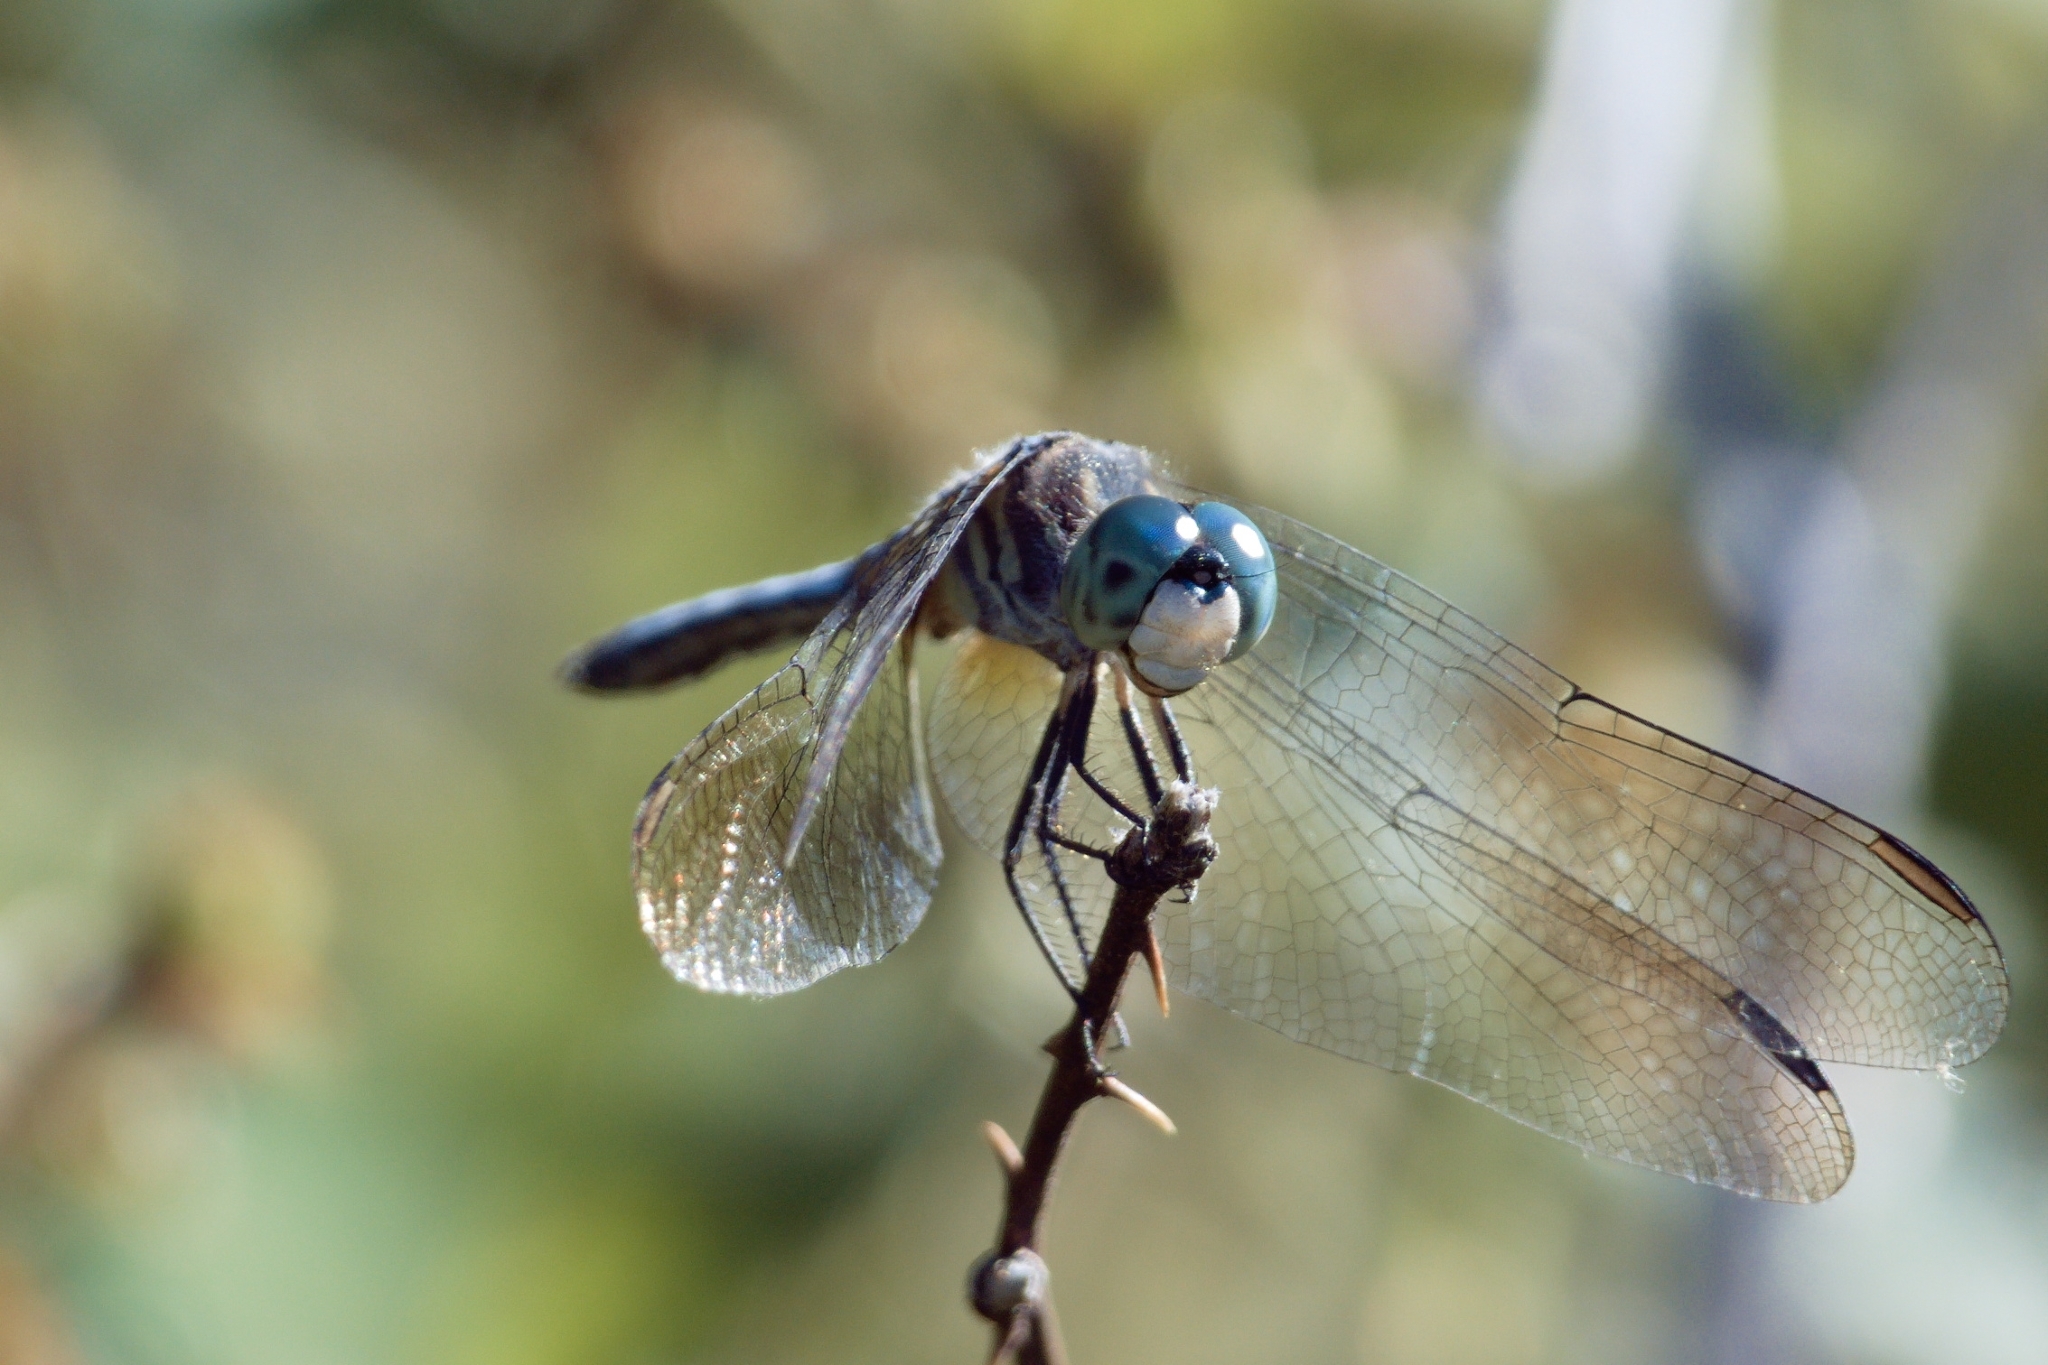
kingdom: Animalia
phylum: Arthropoda
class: Insecta
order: Odonata
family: Libellulidae
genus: Pachydiplax
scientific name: Pachydiplax longipennis
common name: Blue dasher
